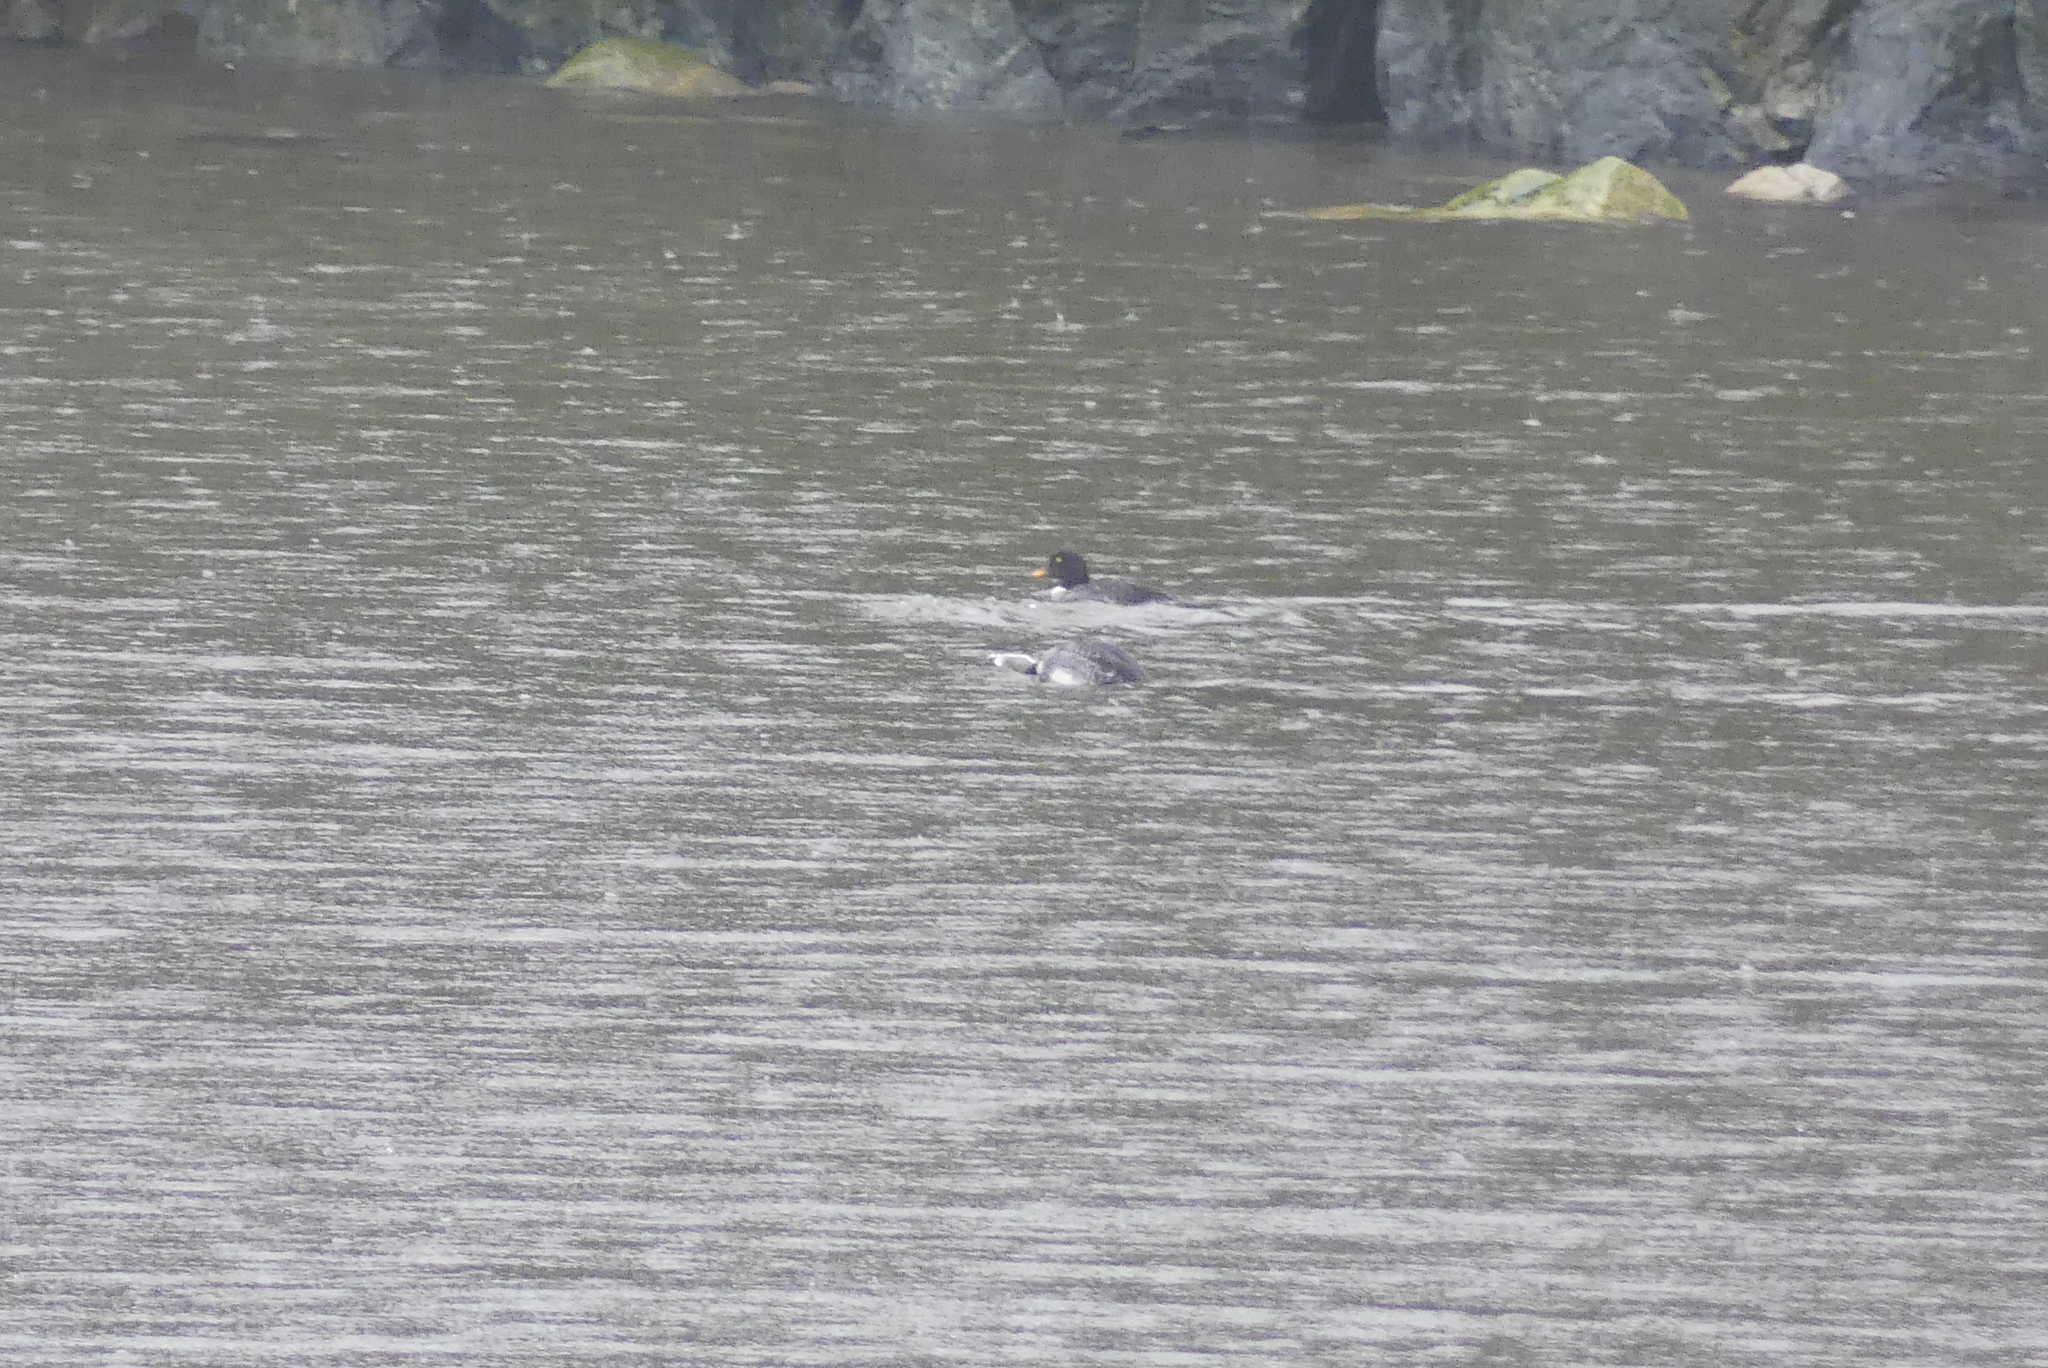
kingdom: Animalia
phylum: Chordata
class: Aves
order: Anseriformes
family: Anatidae
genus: Bucephala
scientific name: Bucephala islandica
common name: Barrow's goldeneye
